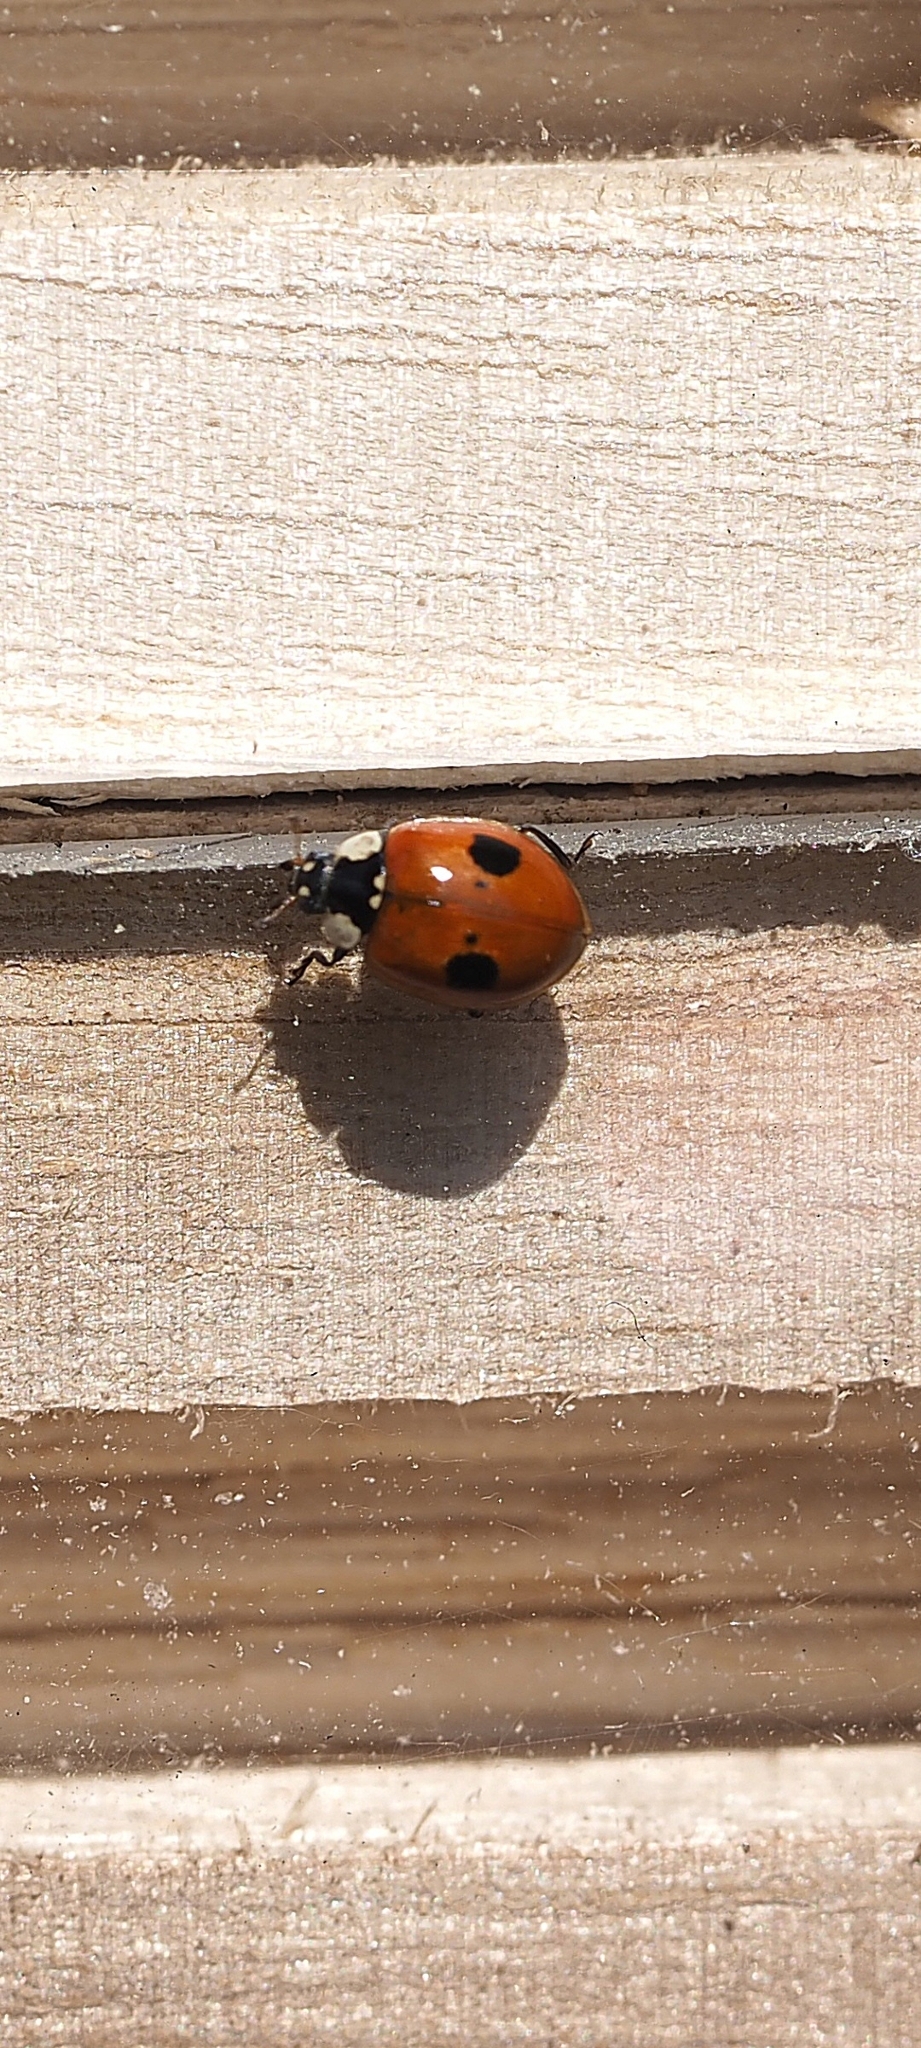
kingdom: Animalia
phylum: Arthropoda
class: Insecta
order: Coleoptera
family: Coccinellidae
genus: Adalia
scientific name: Adalia bipunctata
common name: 2-spot ladybird
